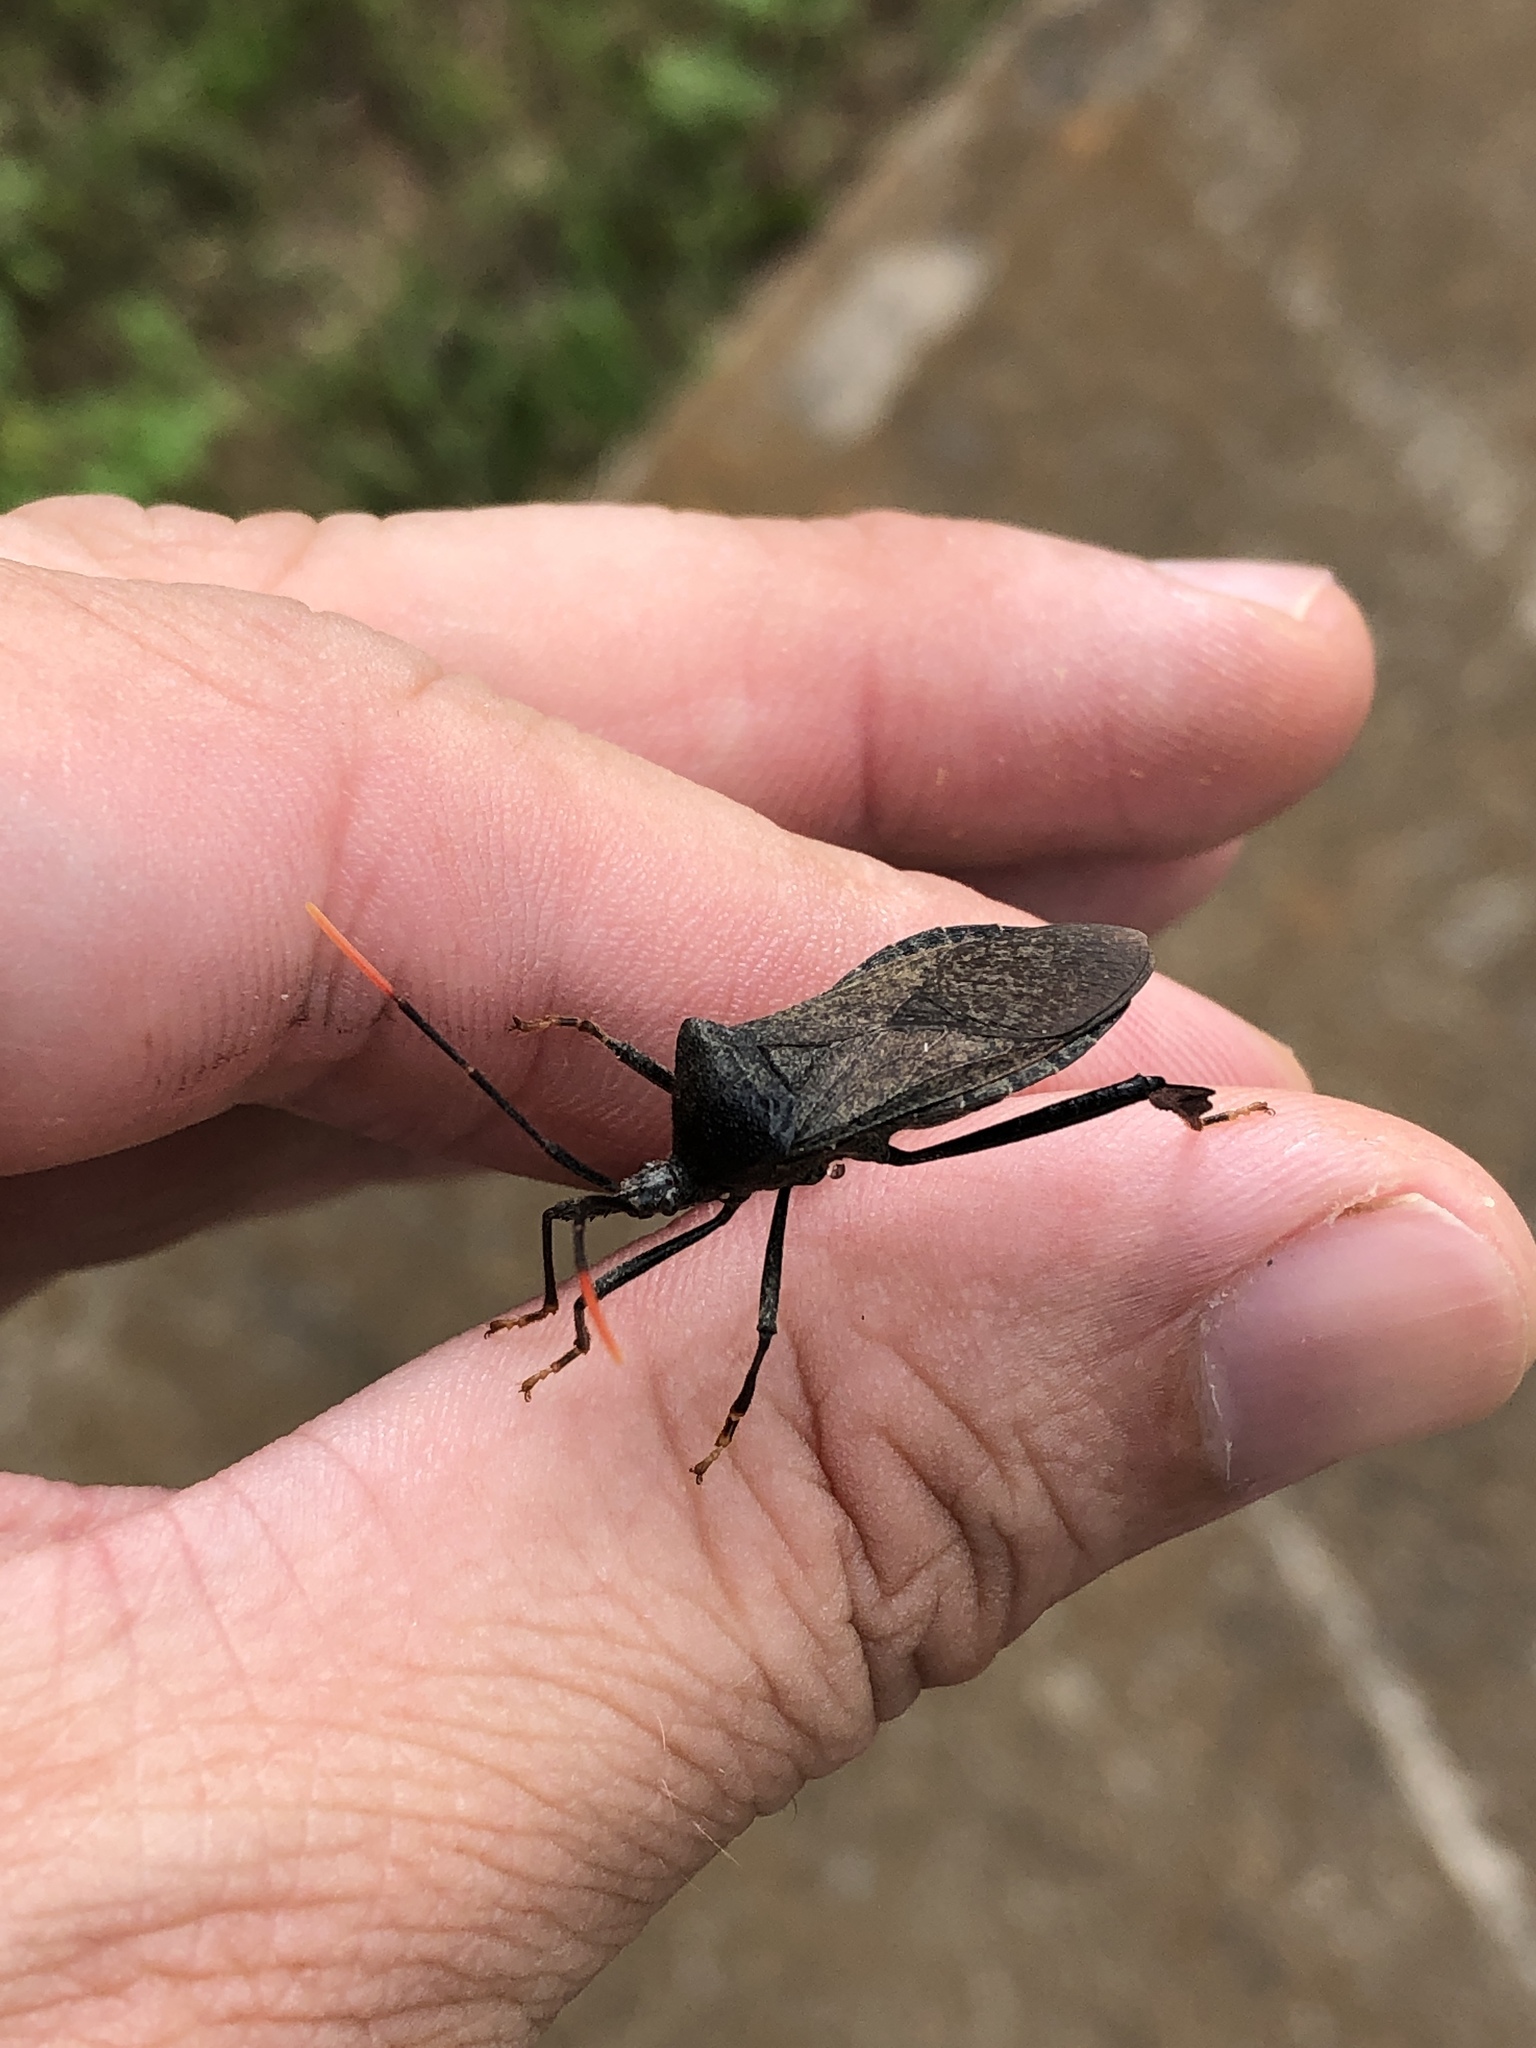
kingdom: Animalia
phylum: Arthropoda
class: Insecta
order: Hemiptera
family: Coreidae
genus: Acanthocephala
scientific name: Acanthocephala terminalis
